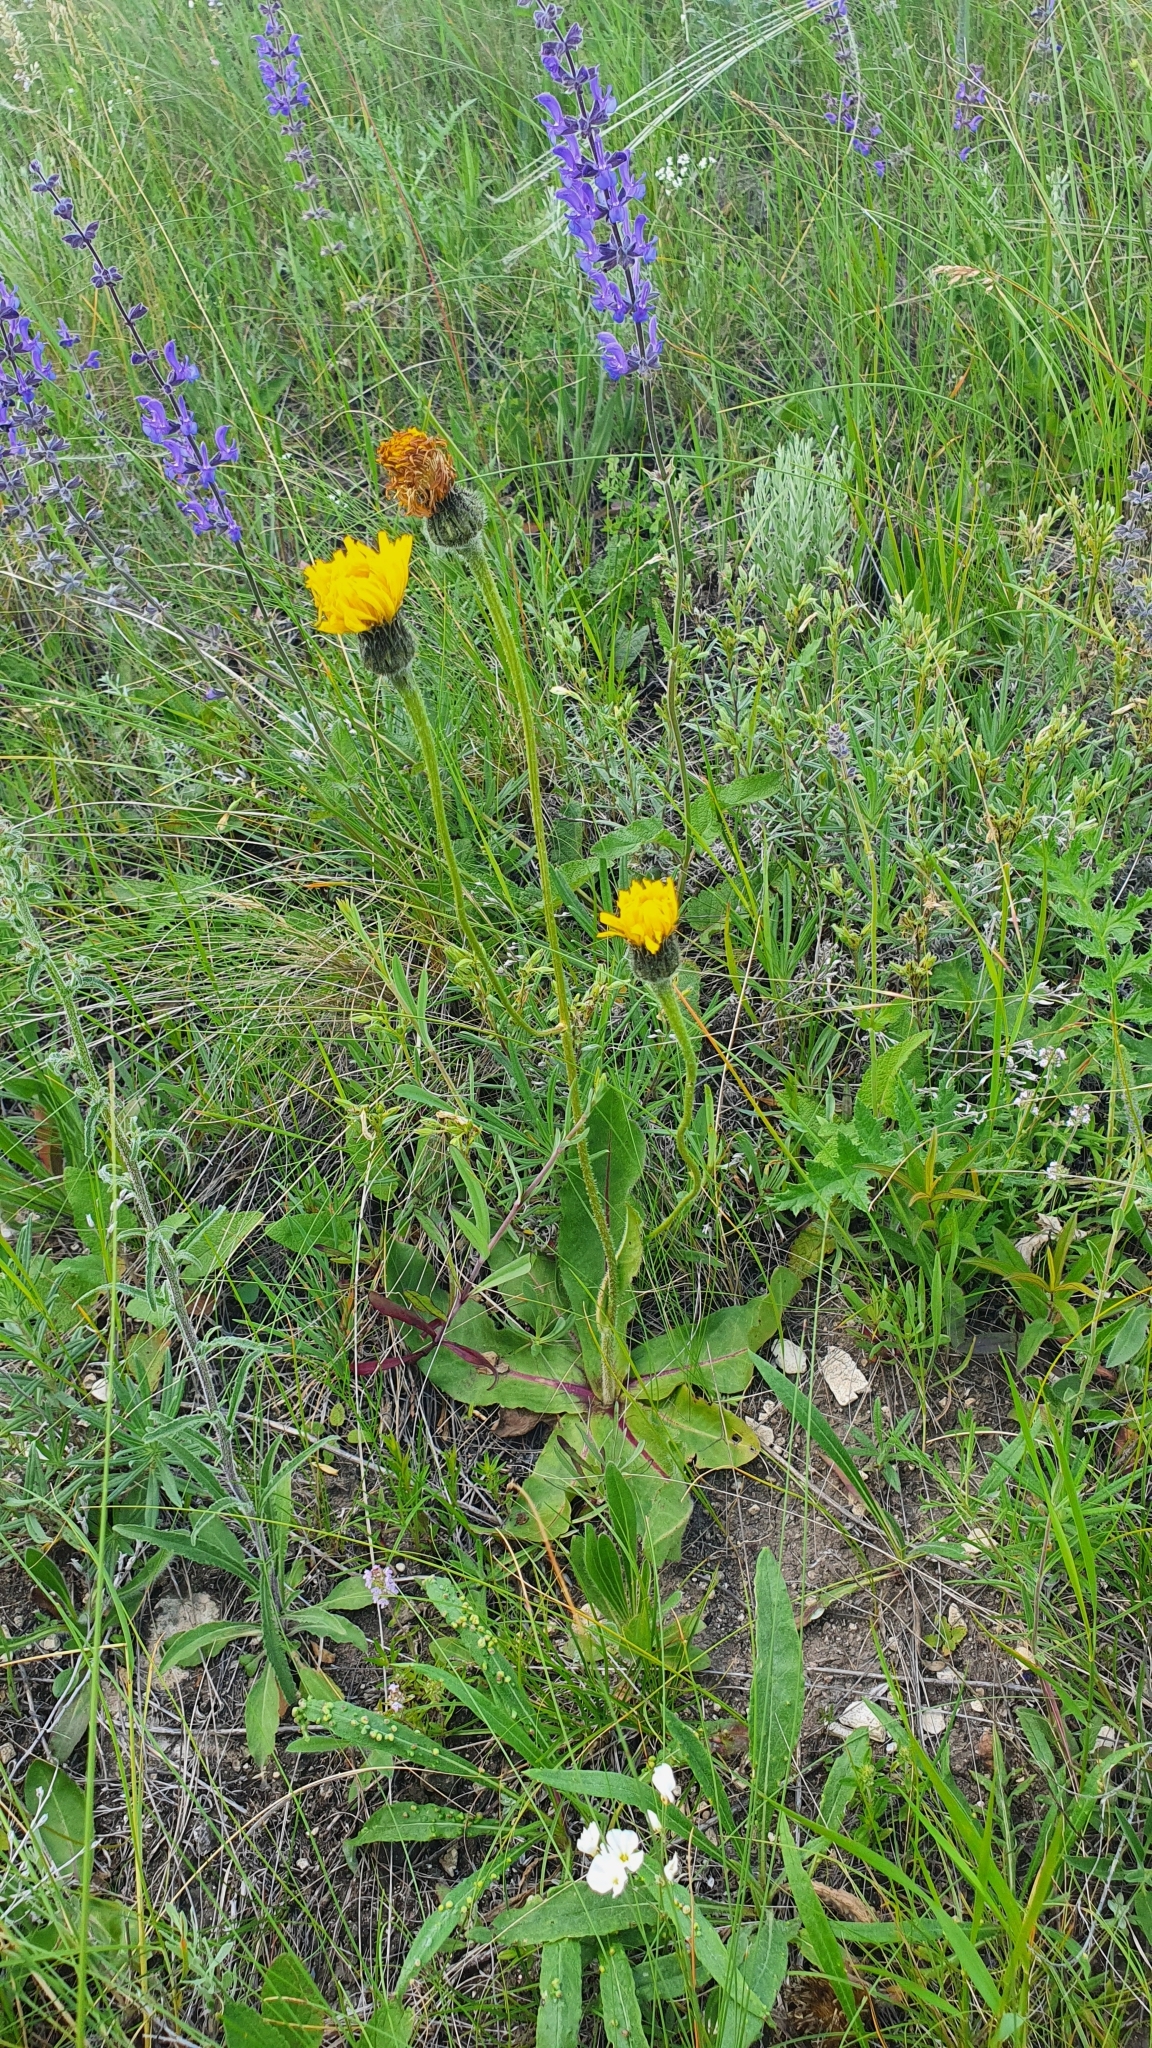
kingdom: Plantae
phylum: Tracheophyta
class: Magnoliopsida
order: Asterales
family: Asteraceae
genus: Trommsdorffia
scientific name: Trommsdorffia maculata
